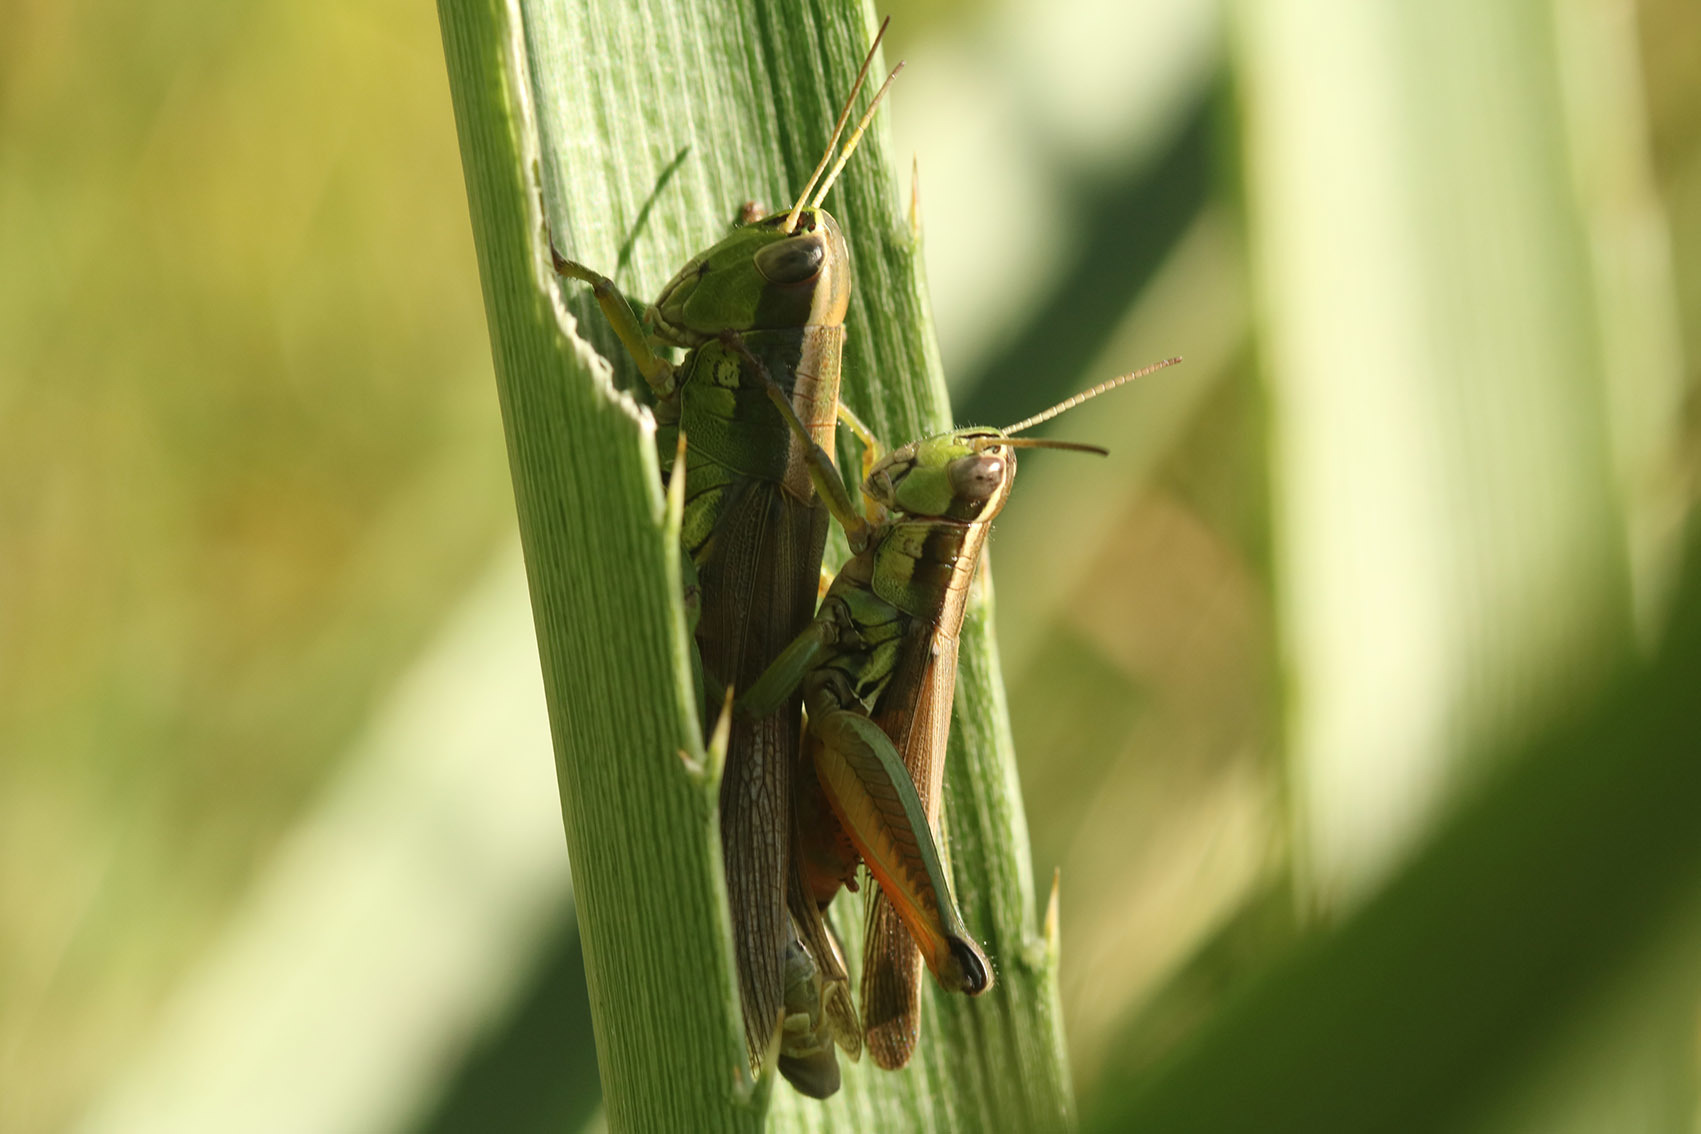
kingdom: Animalia
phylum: Arthropoda
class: Insecta
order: Orthoptera
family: Acrididae
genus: Scotussa
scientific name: Scotussa cliens
